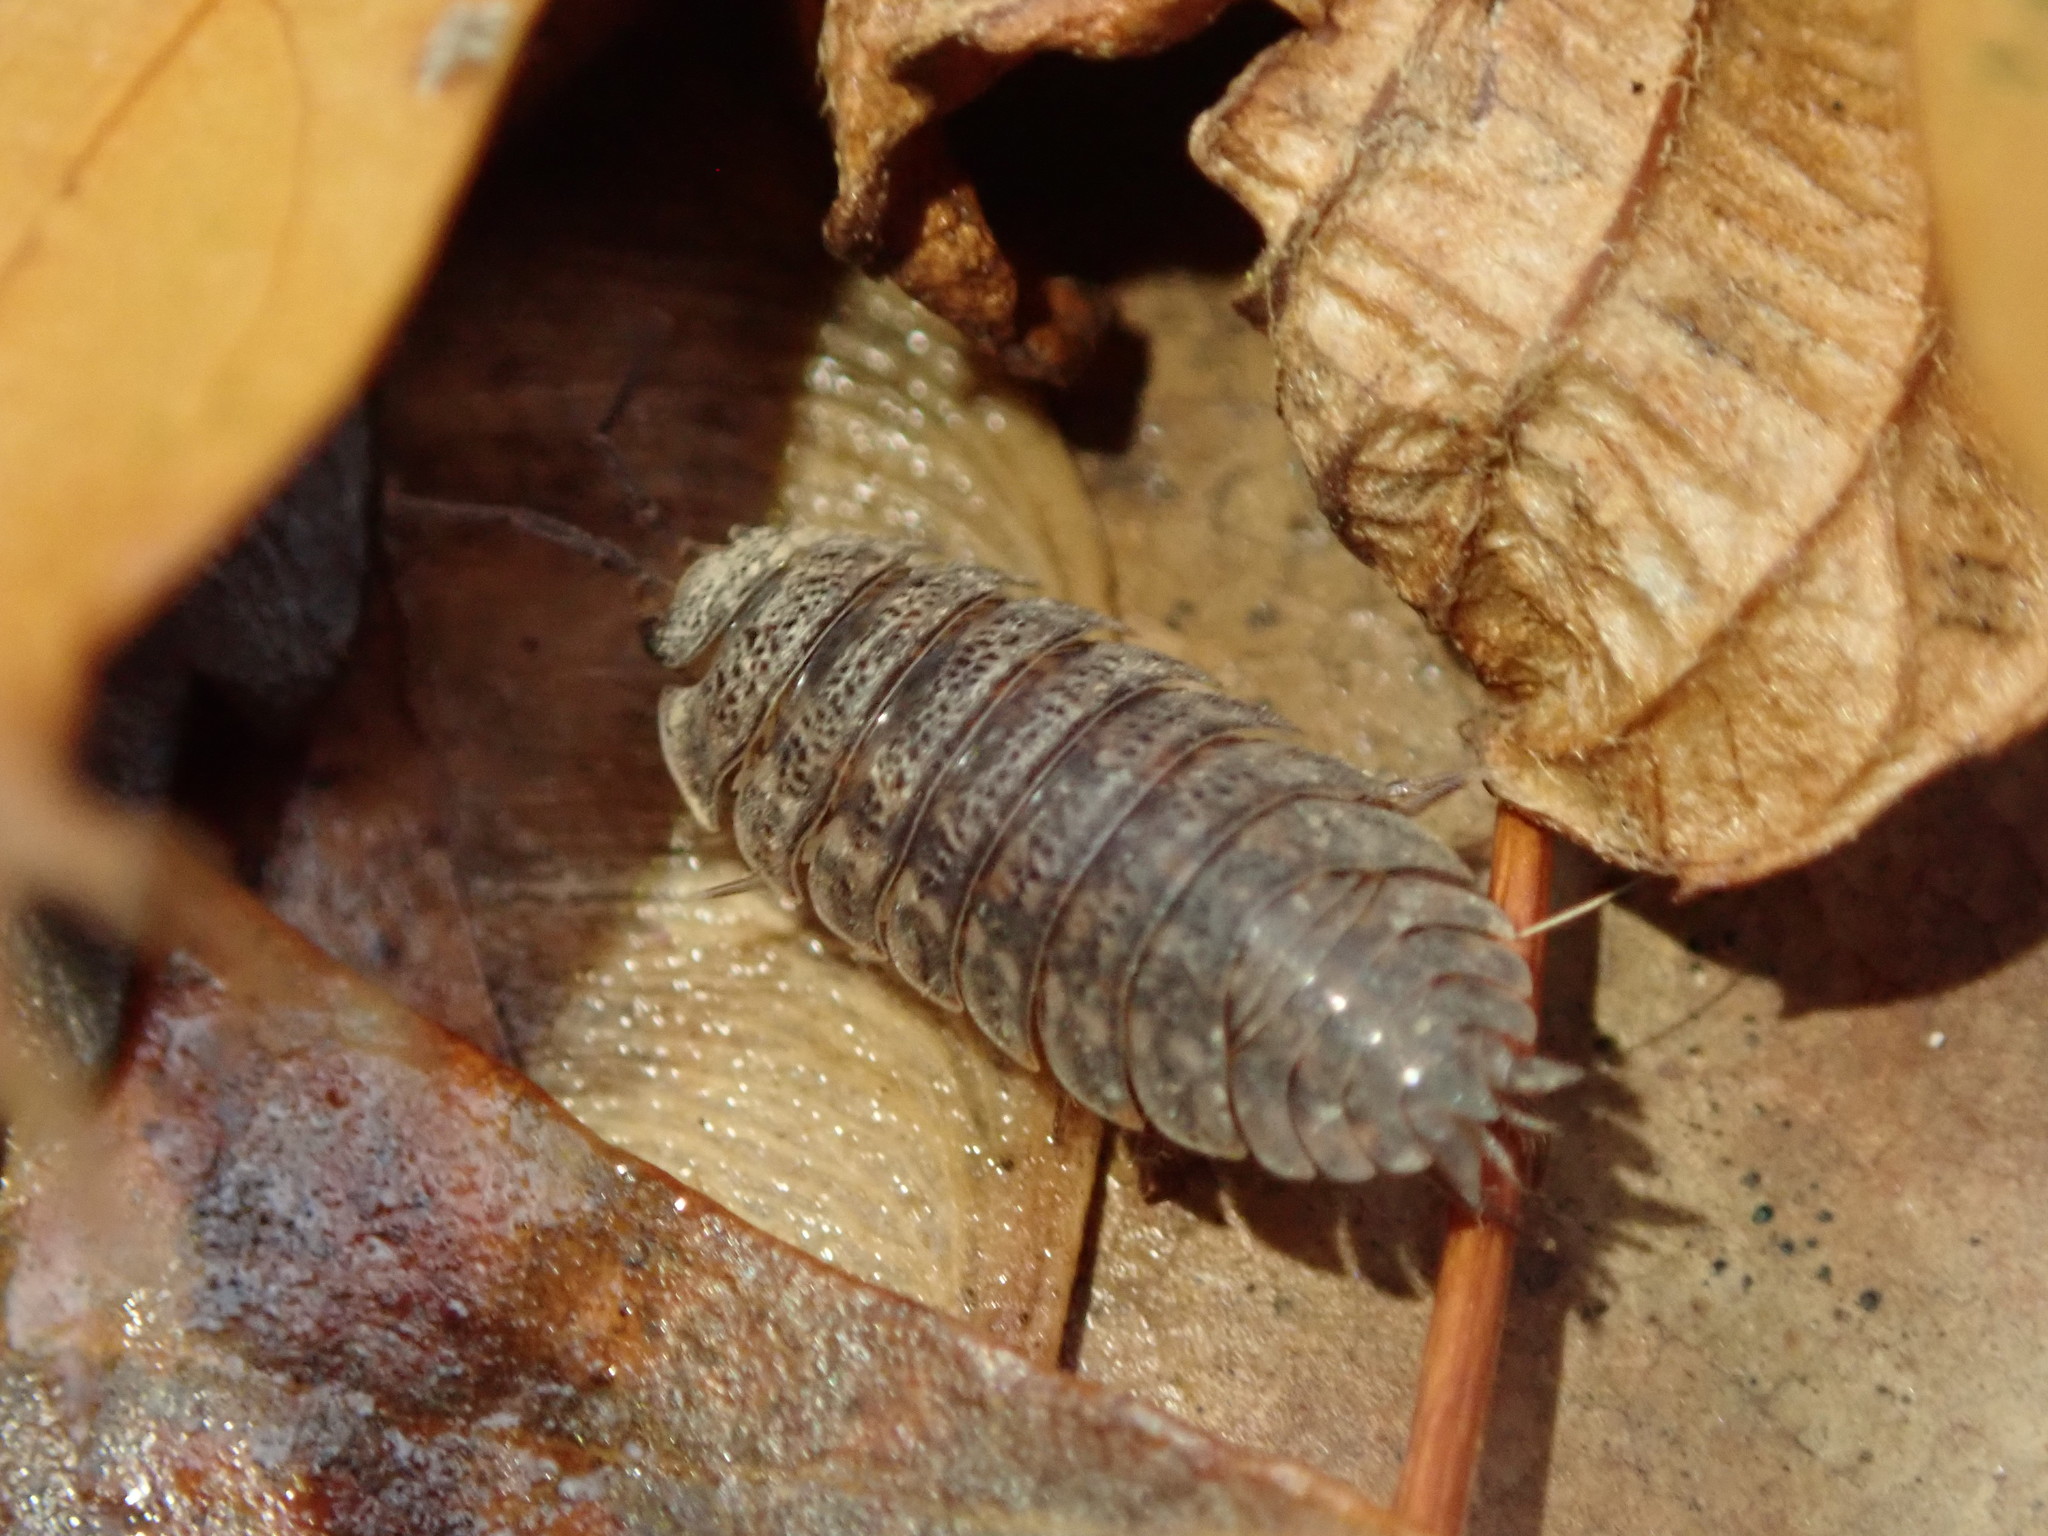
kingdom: Animalia
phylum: Arthropoda
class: Malacostraca
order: Isopoda
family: Trachelipodidae
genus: Trachelipus
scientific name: Trachelipus rathkii
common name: Isopod
